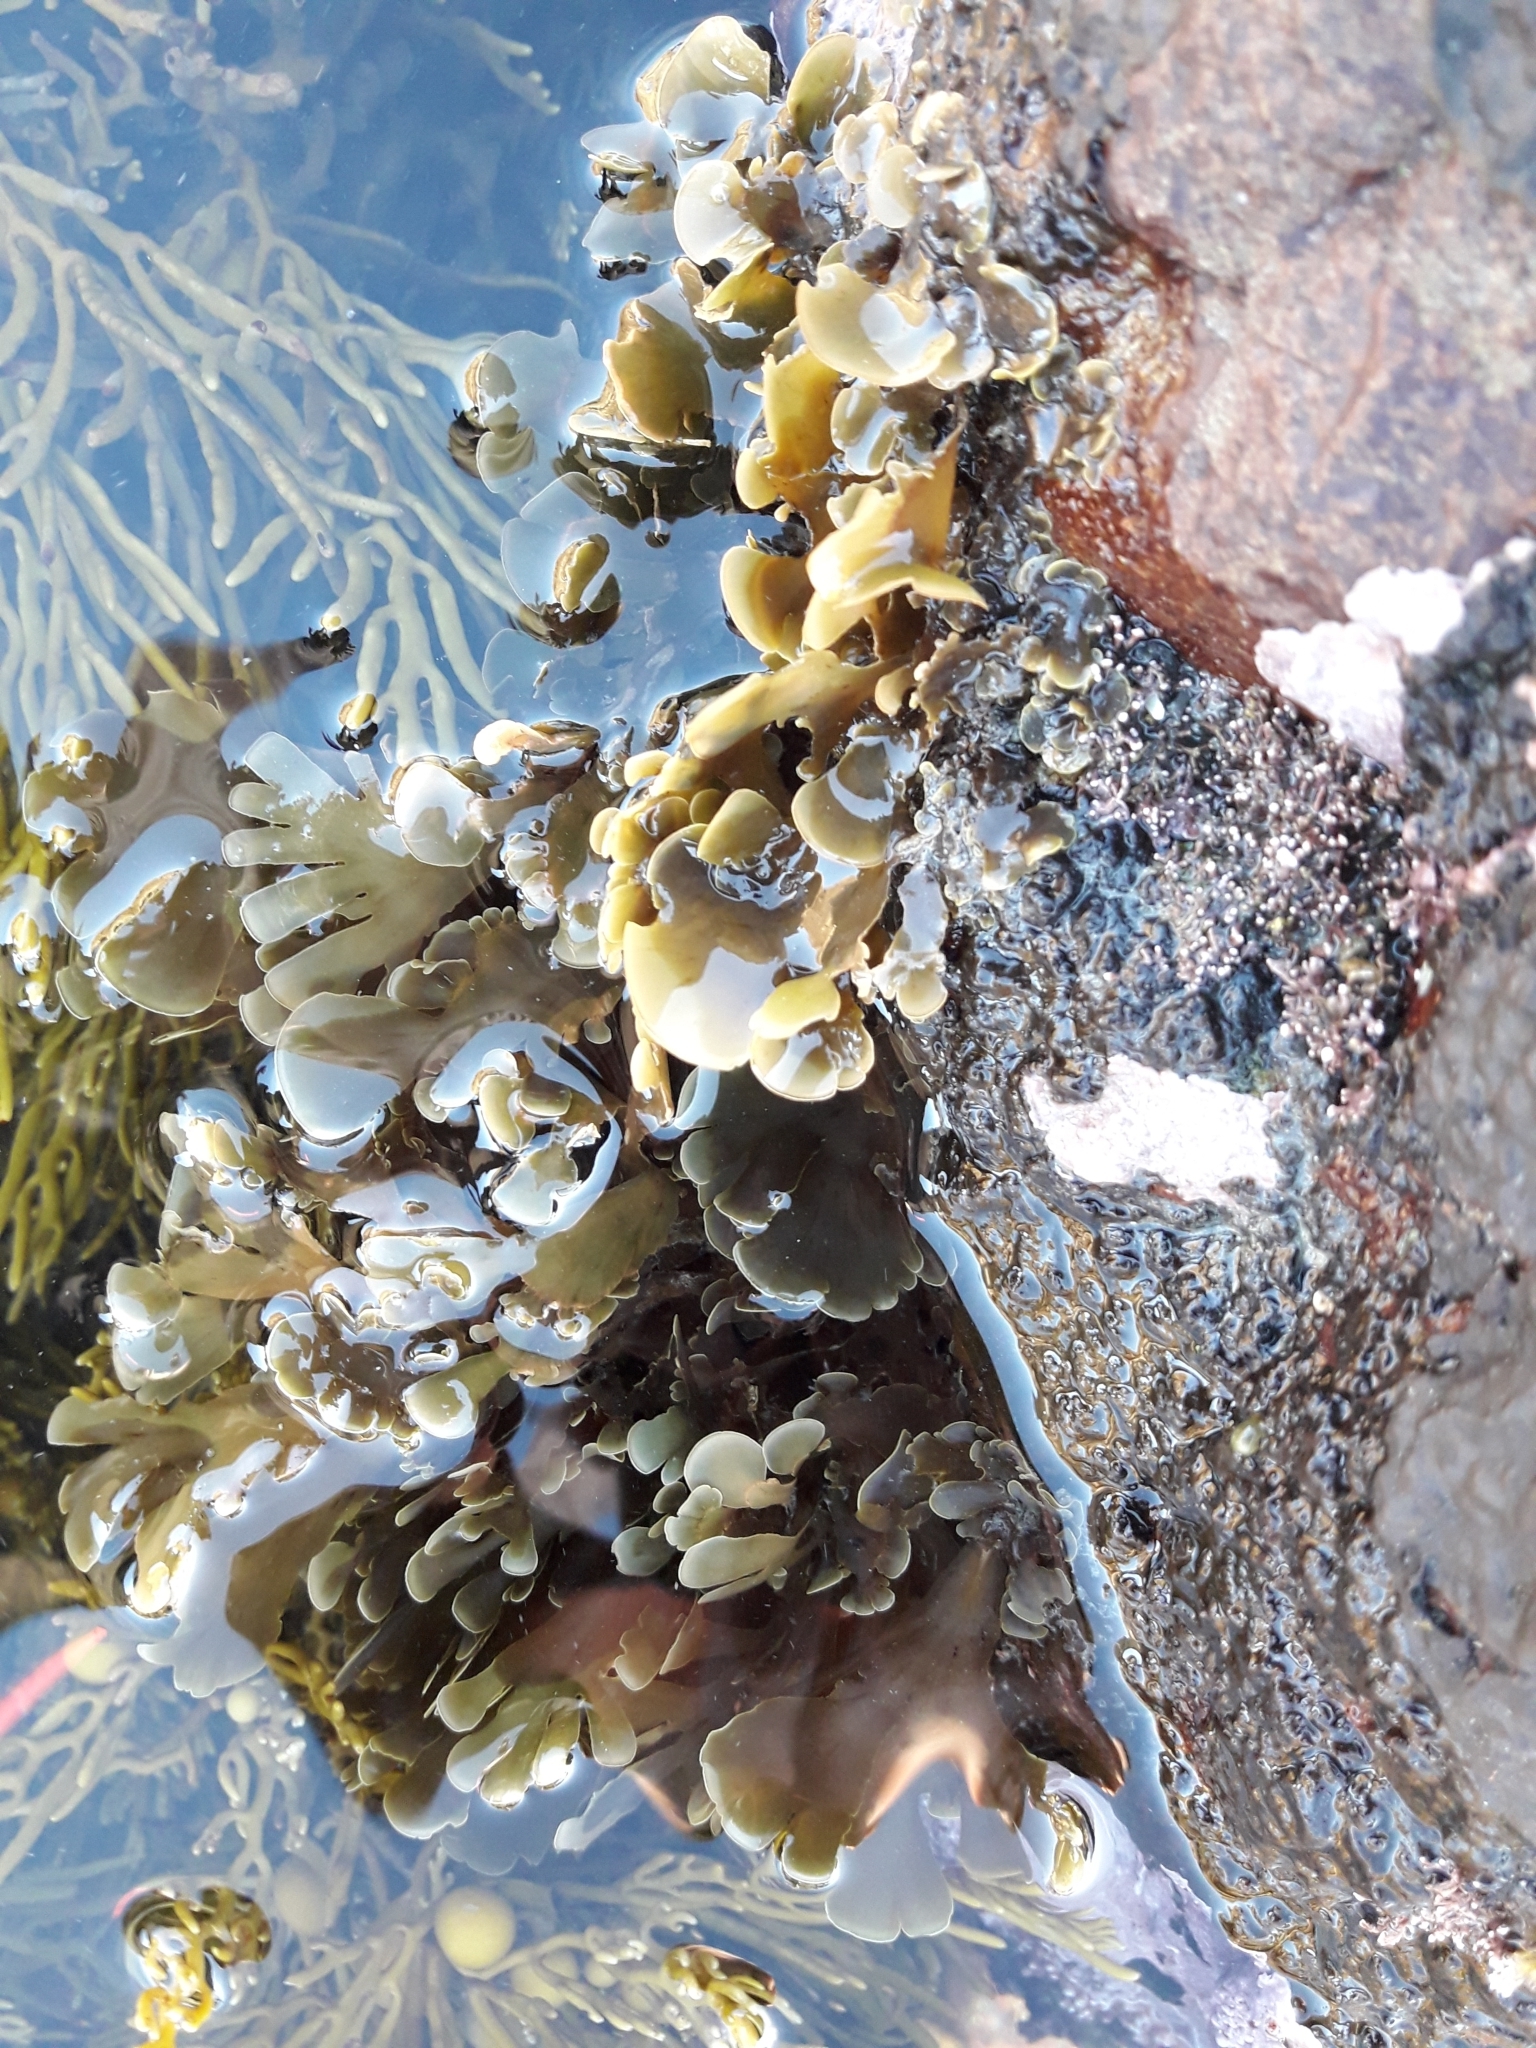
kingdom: Chromista
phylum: Ochrophyta
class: Phaeophyceae
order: Dictyotales
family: Dictyotaceae
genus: Zonaria
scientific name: Zonaria aureomarginata
